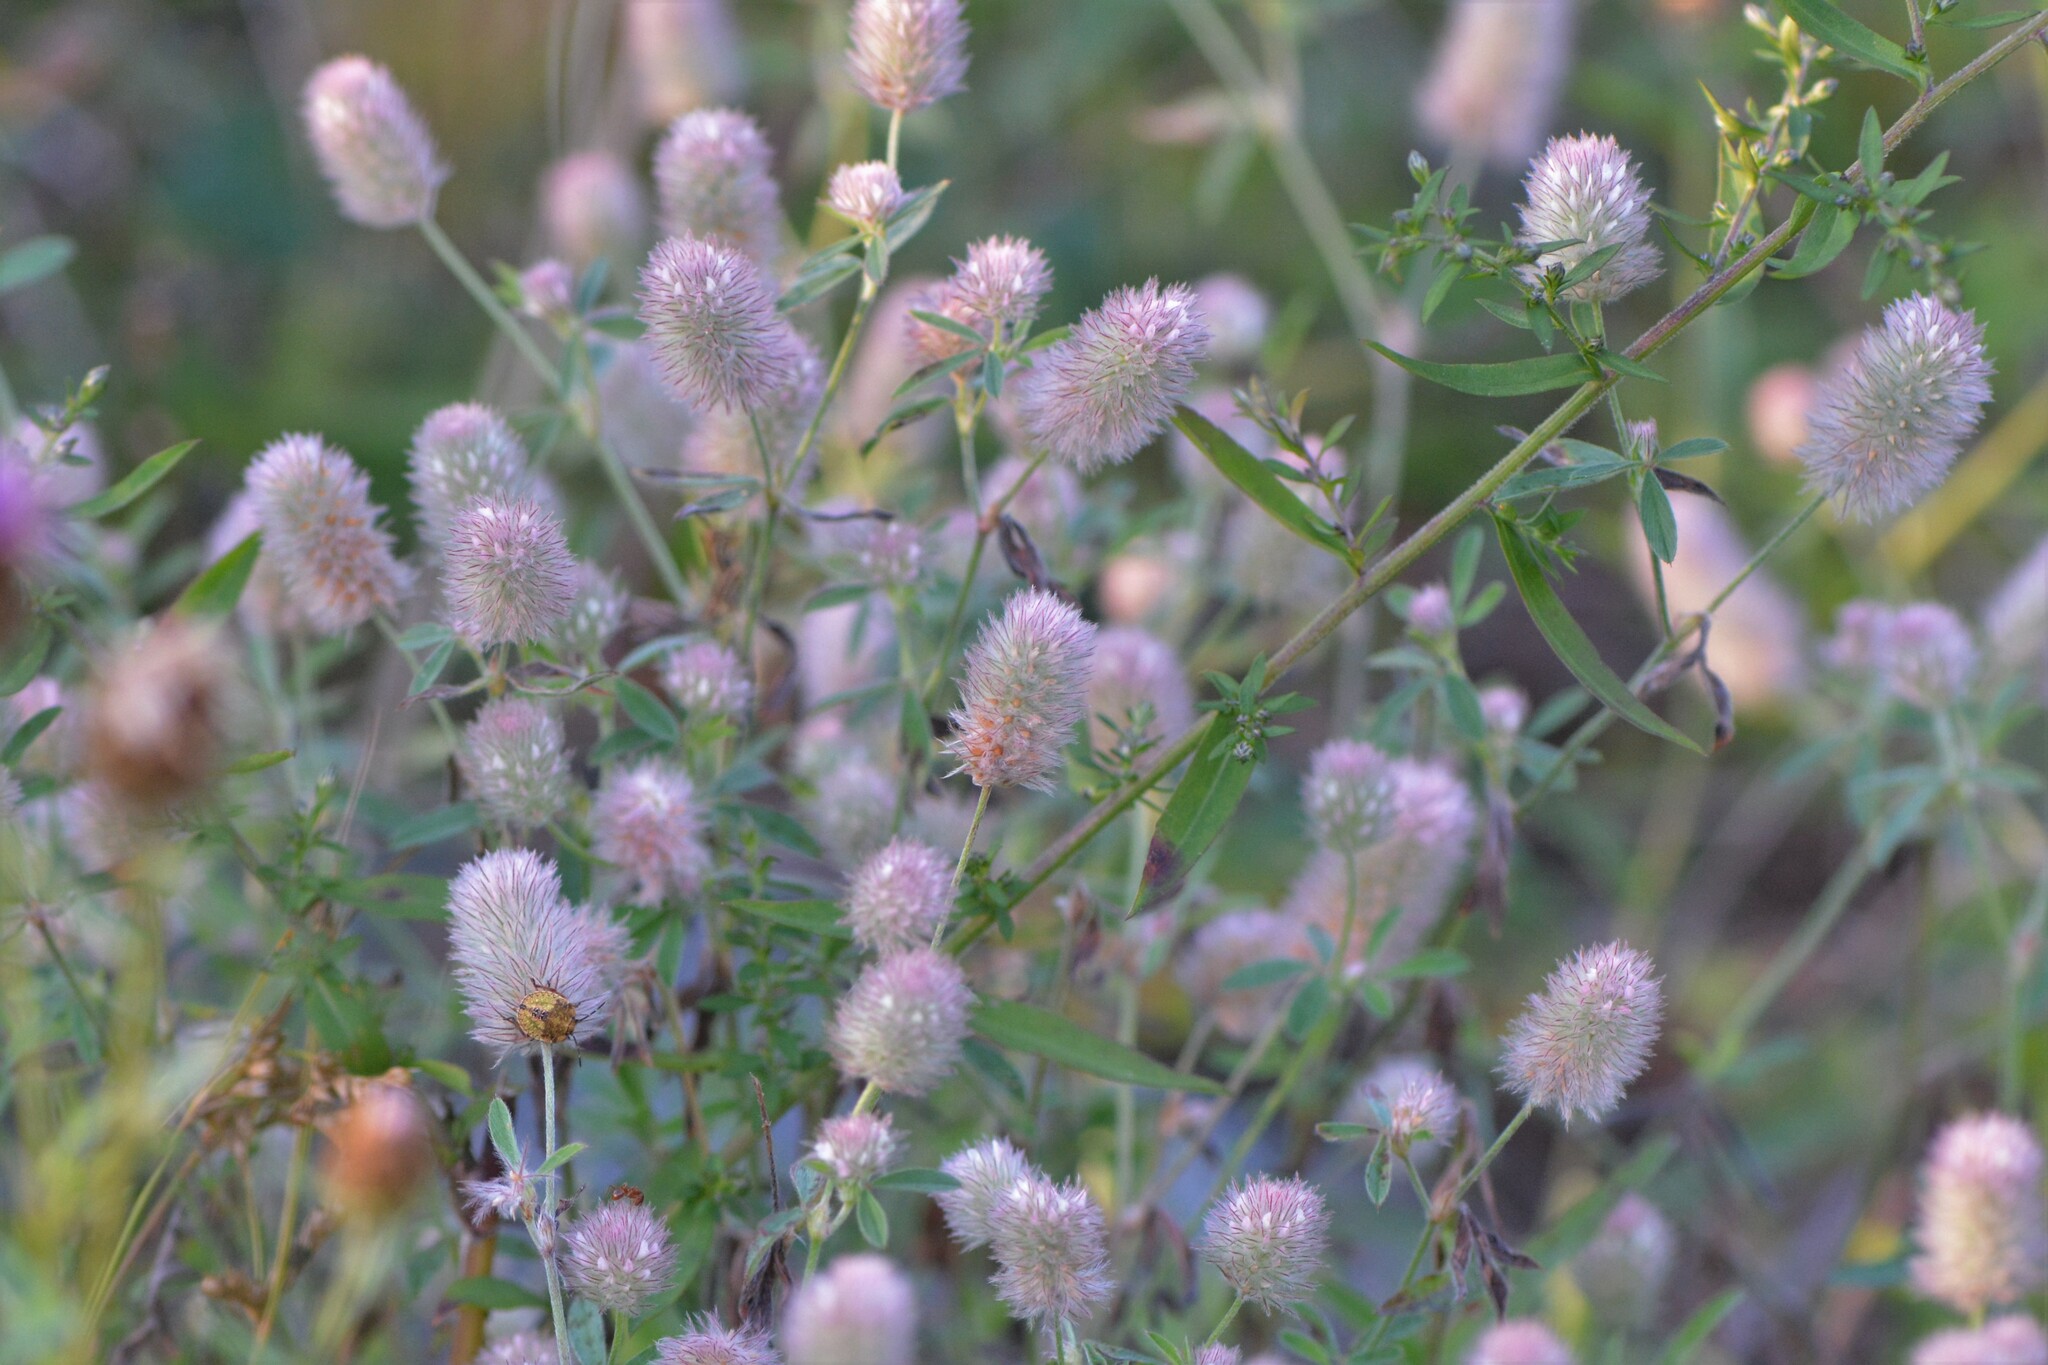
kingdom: Plantae
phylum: Tracheophyta
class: Magnoliopsida
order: Fabales
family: Fabaceae
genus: Trifolium
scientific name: Trifolium arvense
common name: Hare's-foot clover
